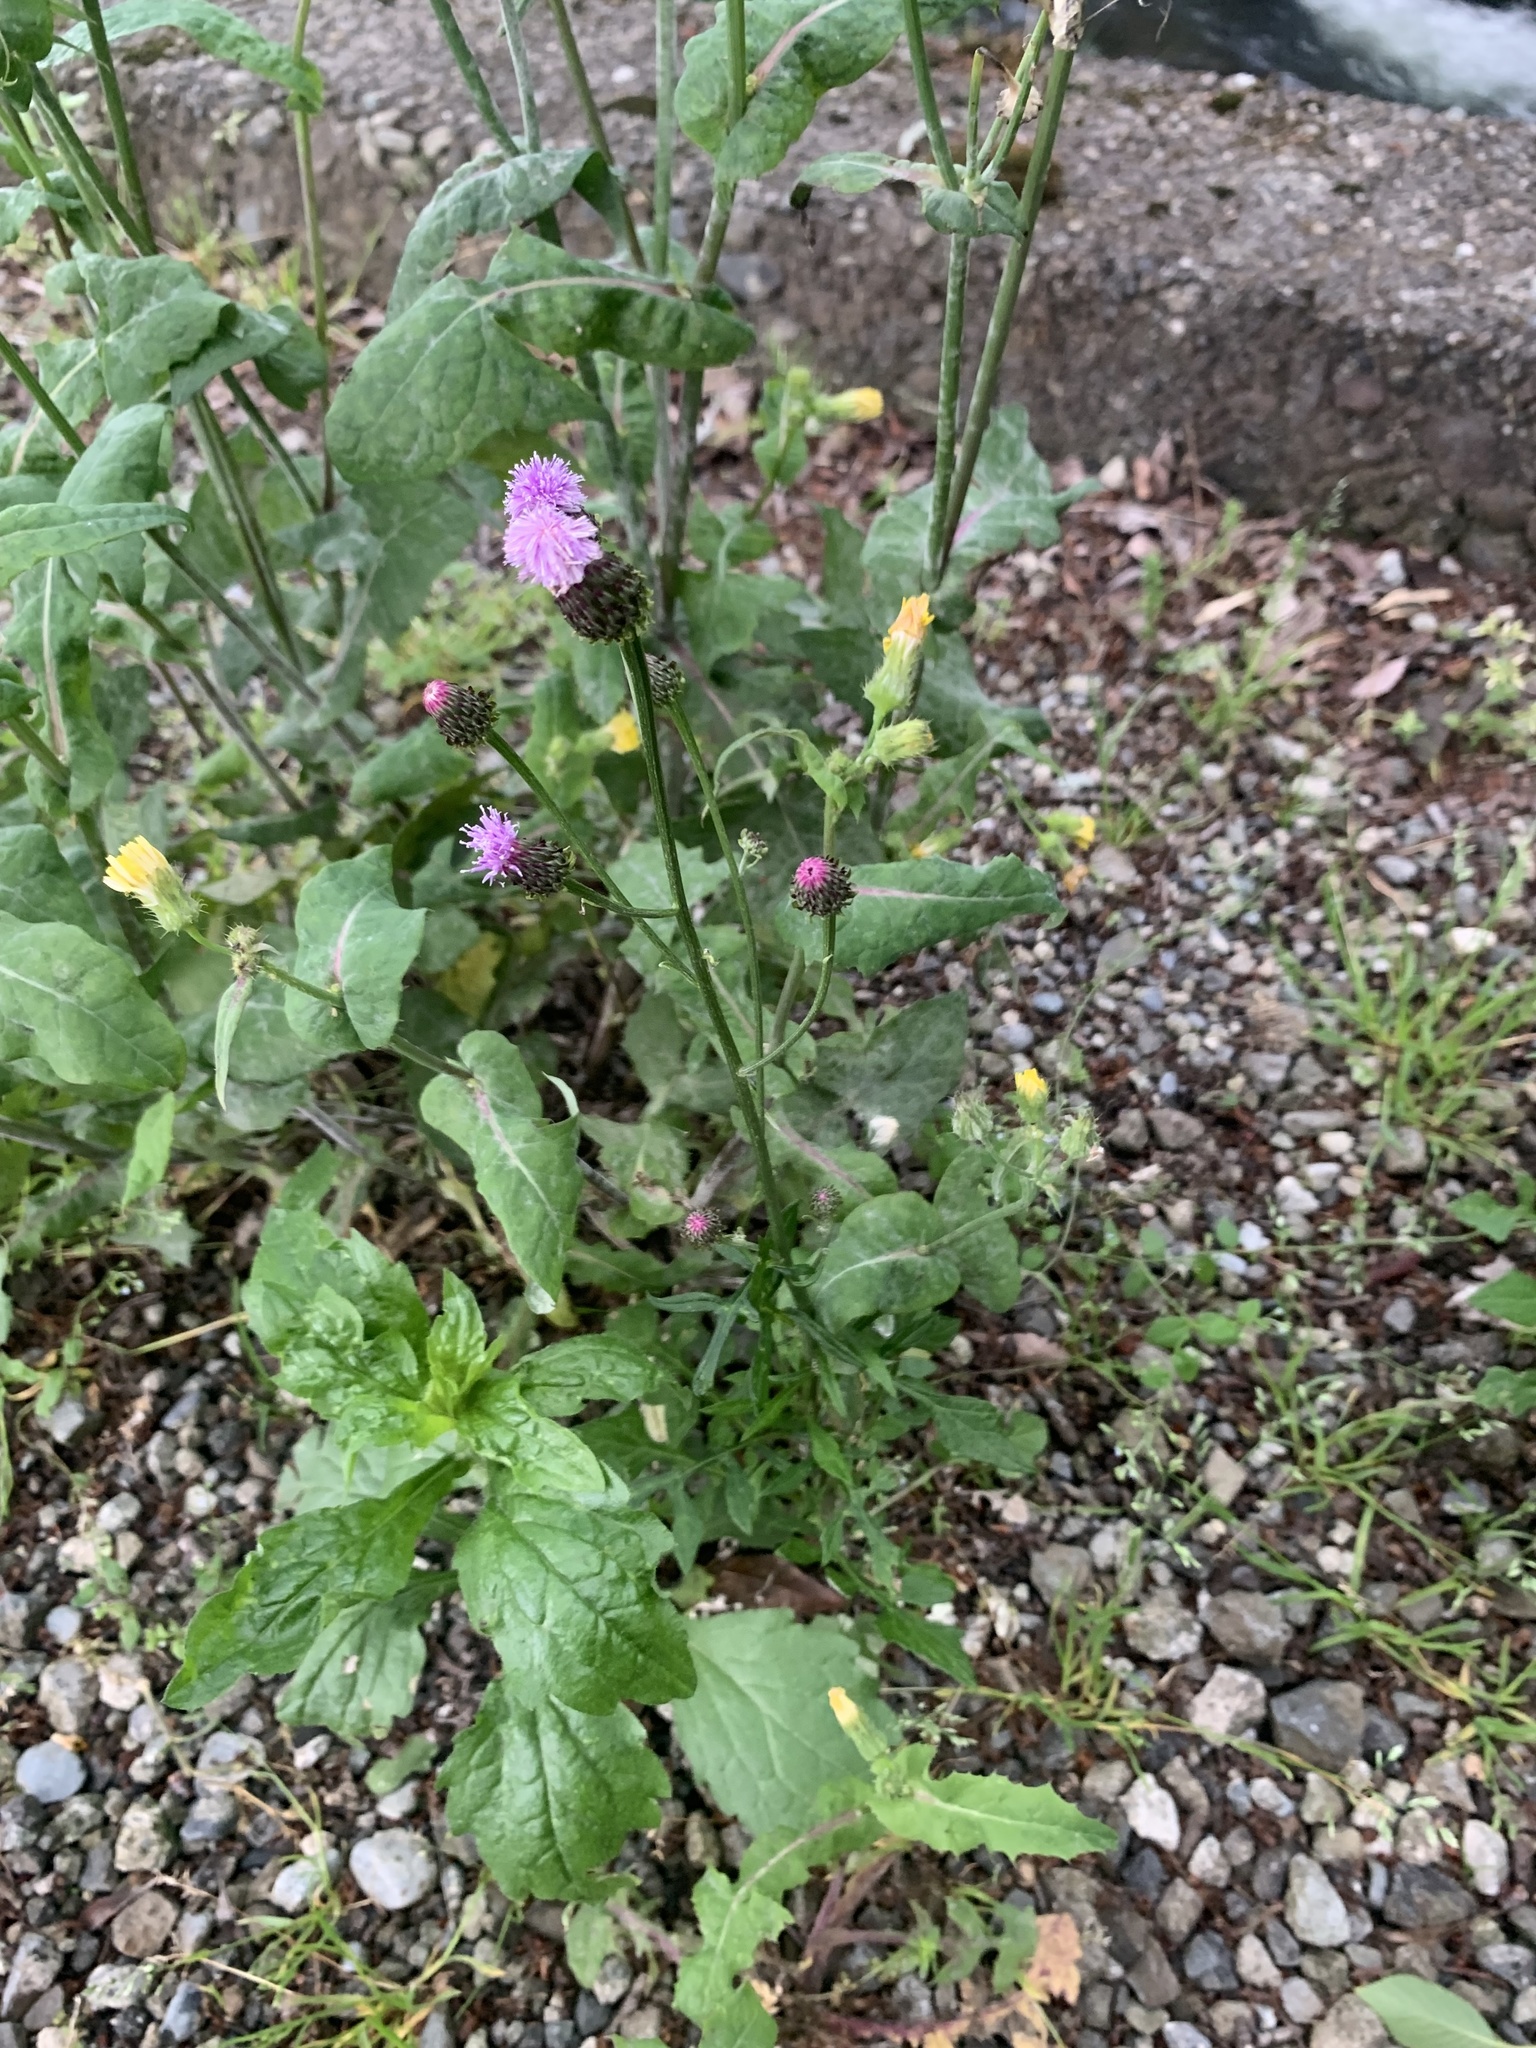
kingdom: Plantae
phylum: Tracheophyta
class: Magnoliopsida
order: Asterales
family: Asteraceae
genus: Saussurea
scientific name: Saussurea lyrata
